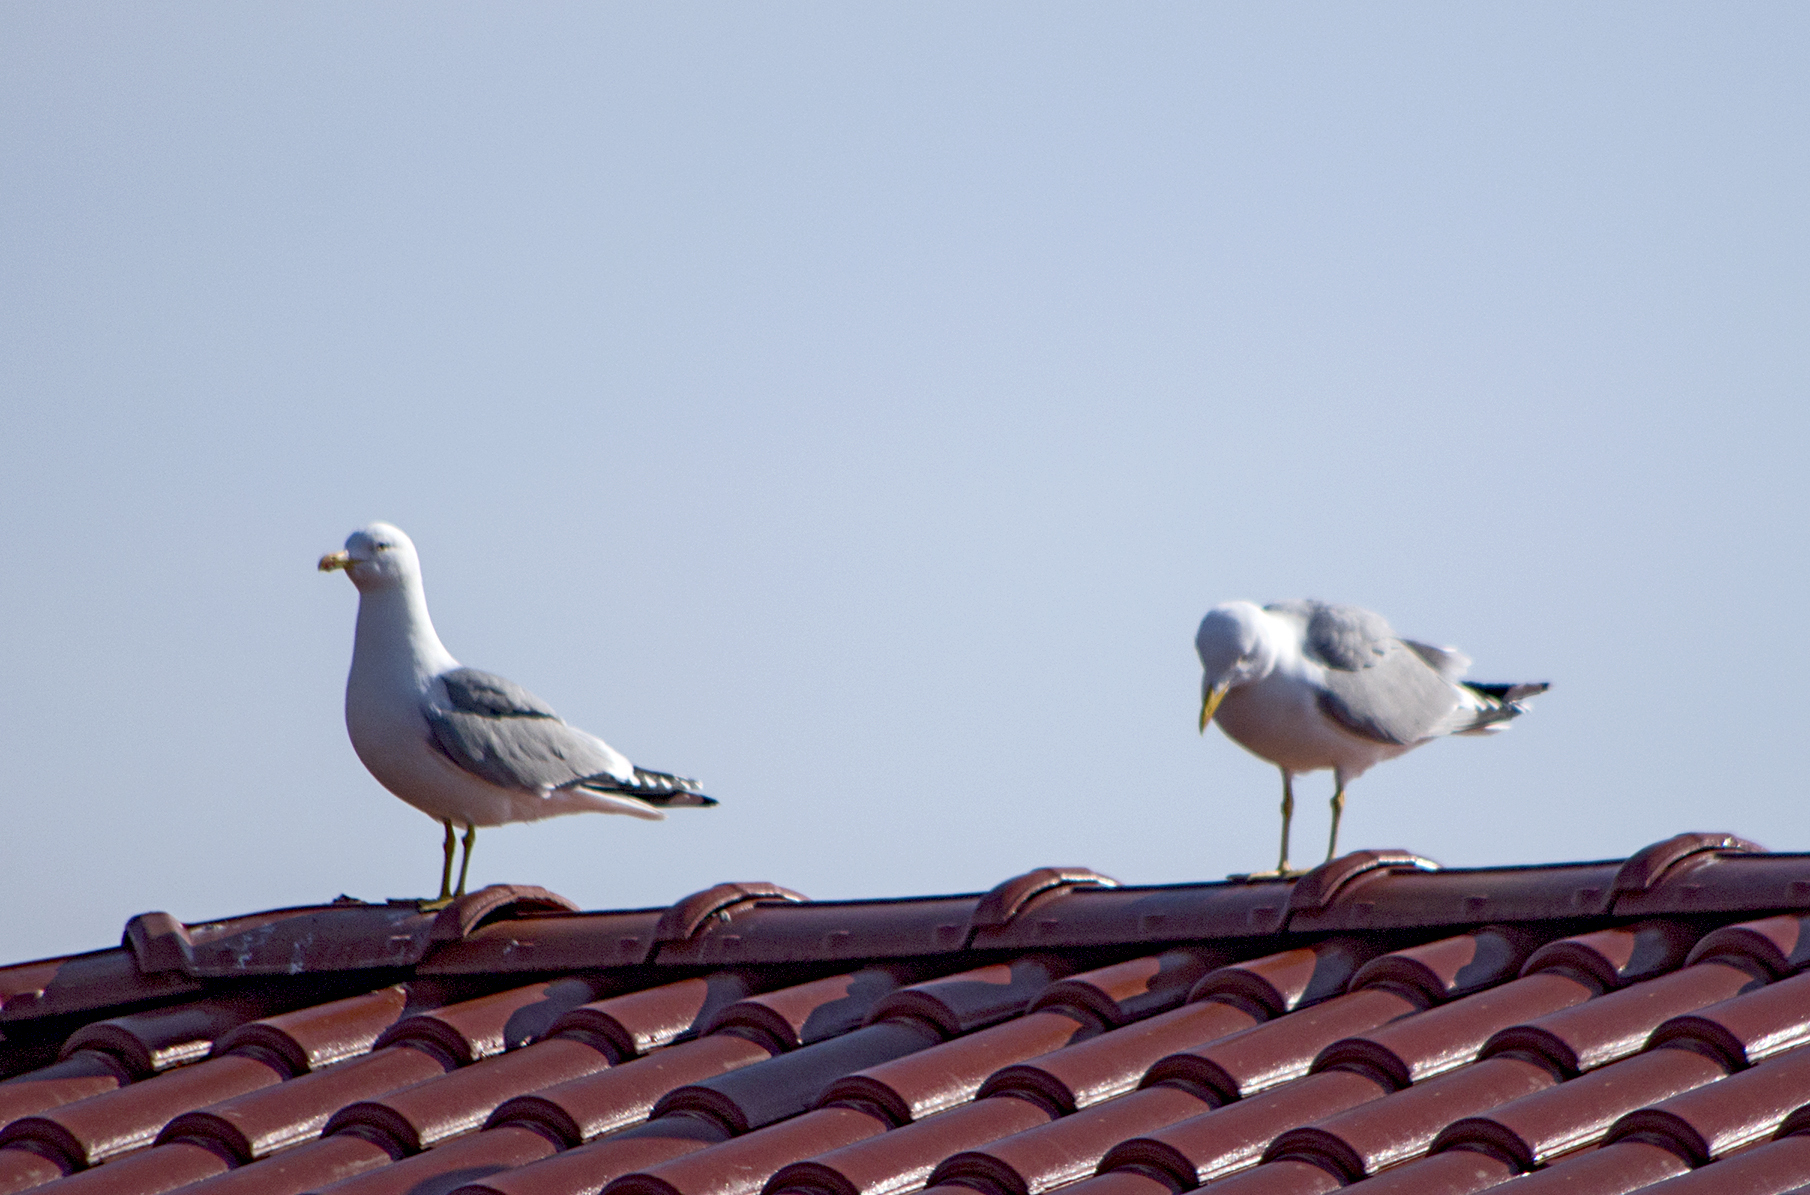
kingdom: Animalia
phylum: Chordata
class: Aves
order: Charadriiformes
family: Laridae
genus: Larus
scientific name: Larus michahellis
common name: Yellow-legged gull
